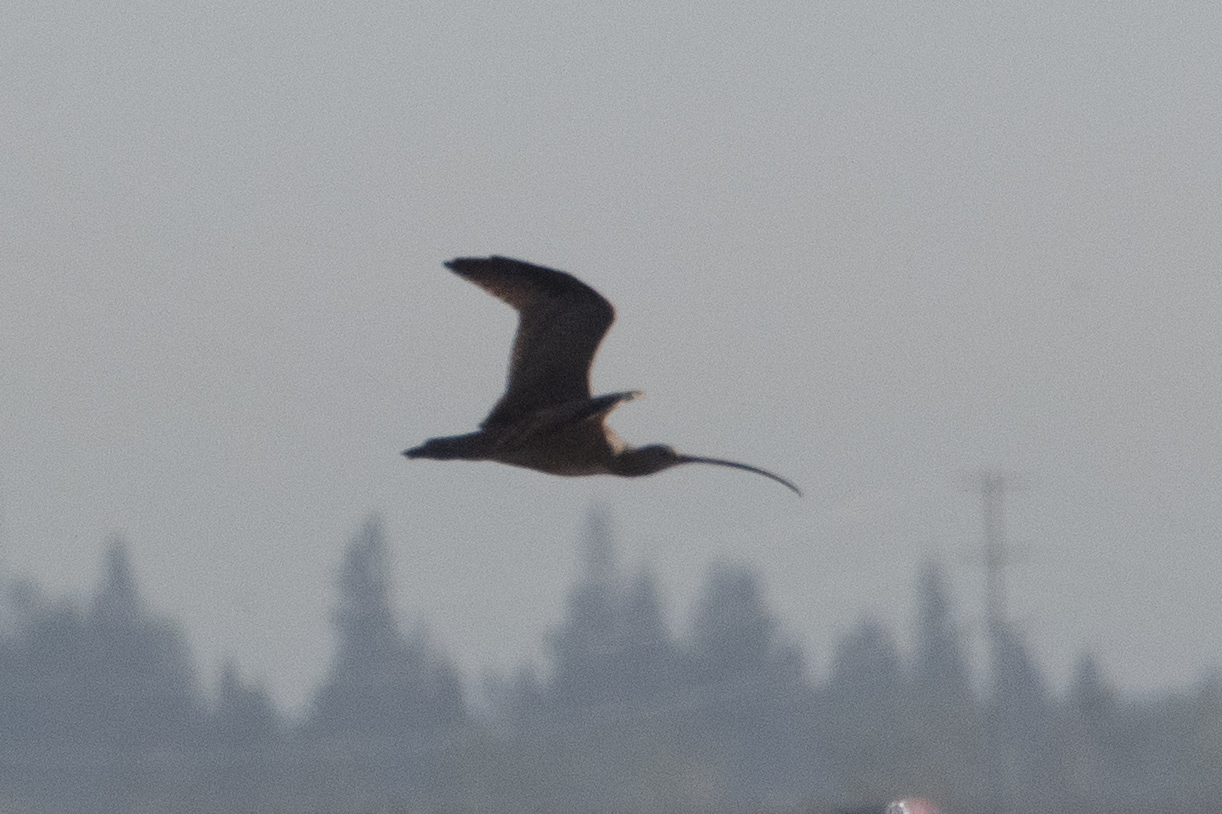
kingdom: Animalia
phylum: Chordata
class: Aves
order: Charadriiformes
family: Scolopacidae
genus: Numenius
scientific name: Numenius americanus
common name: Long-billed curlew
